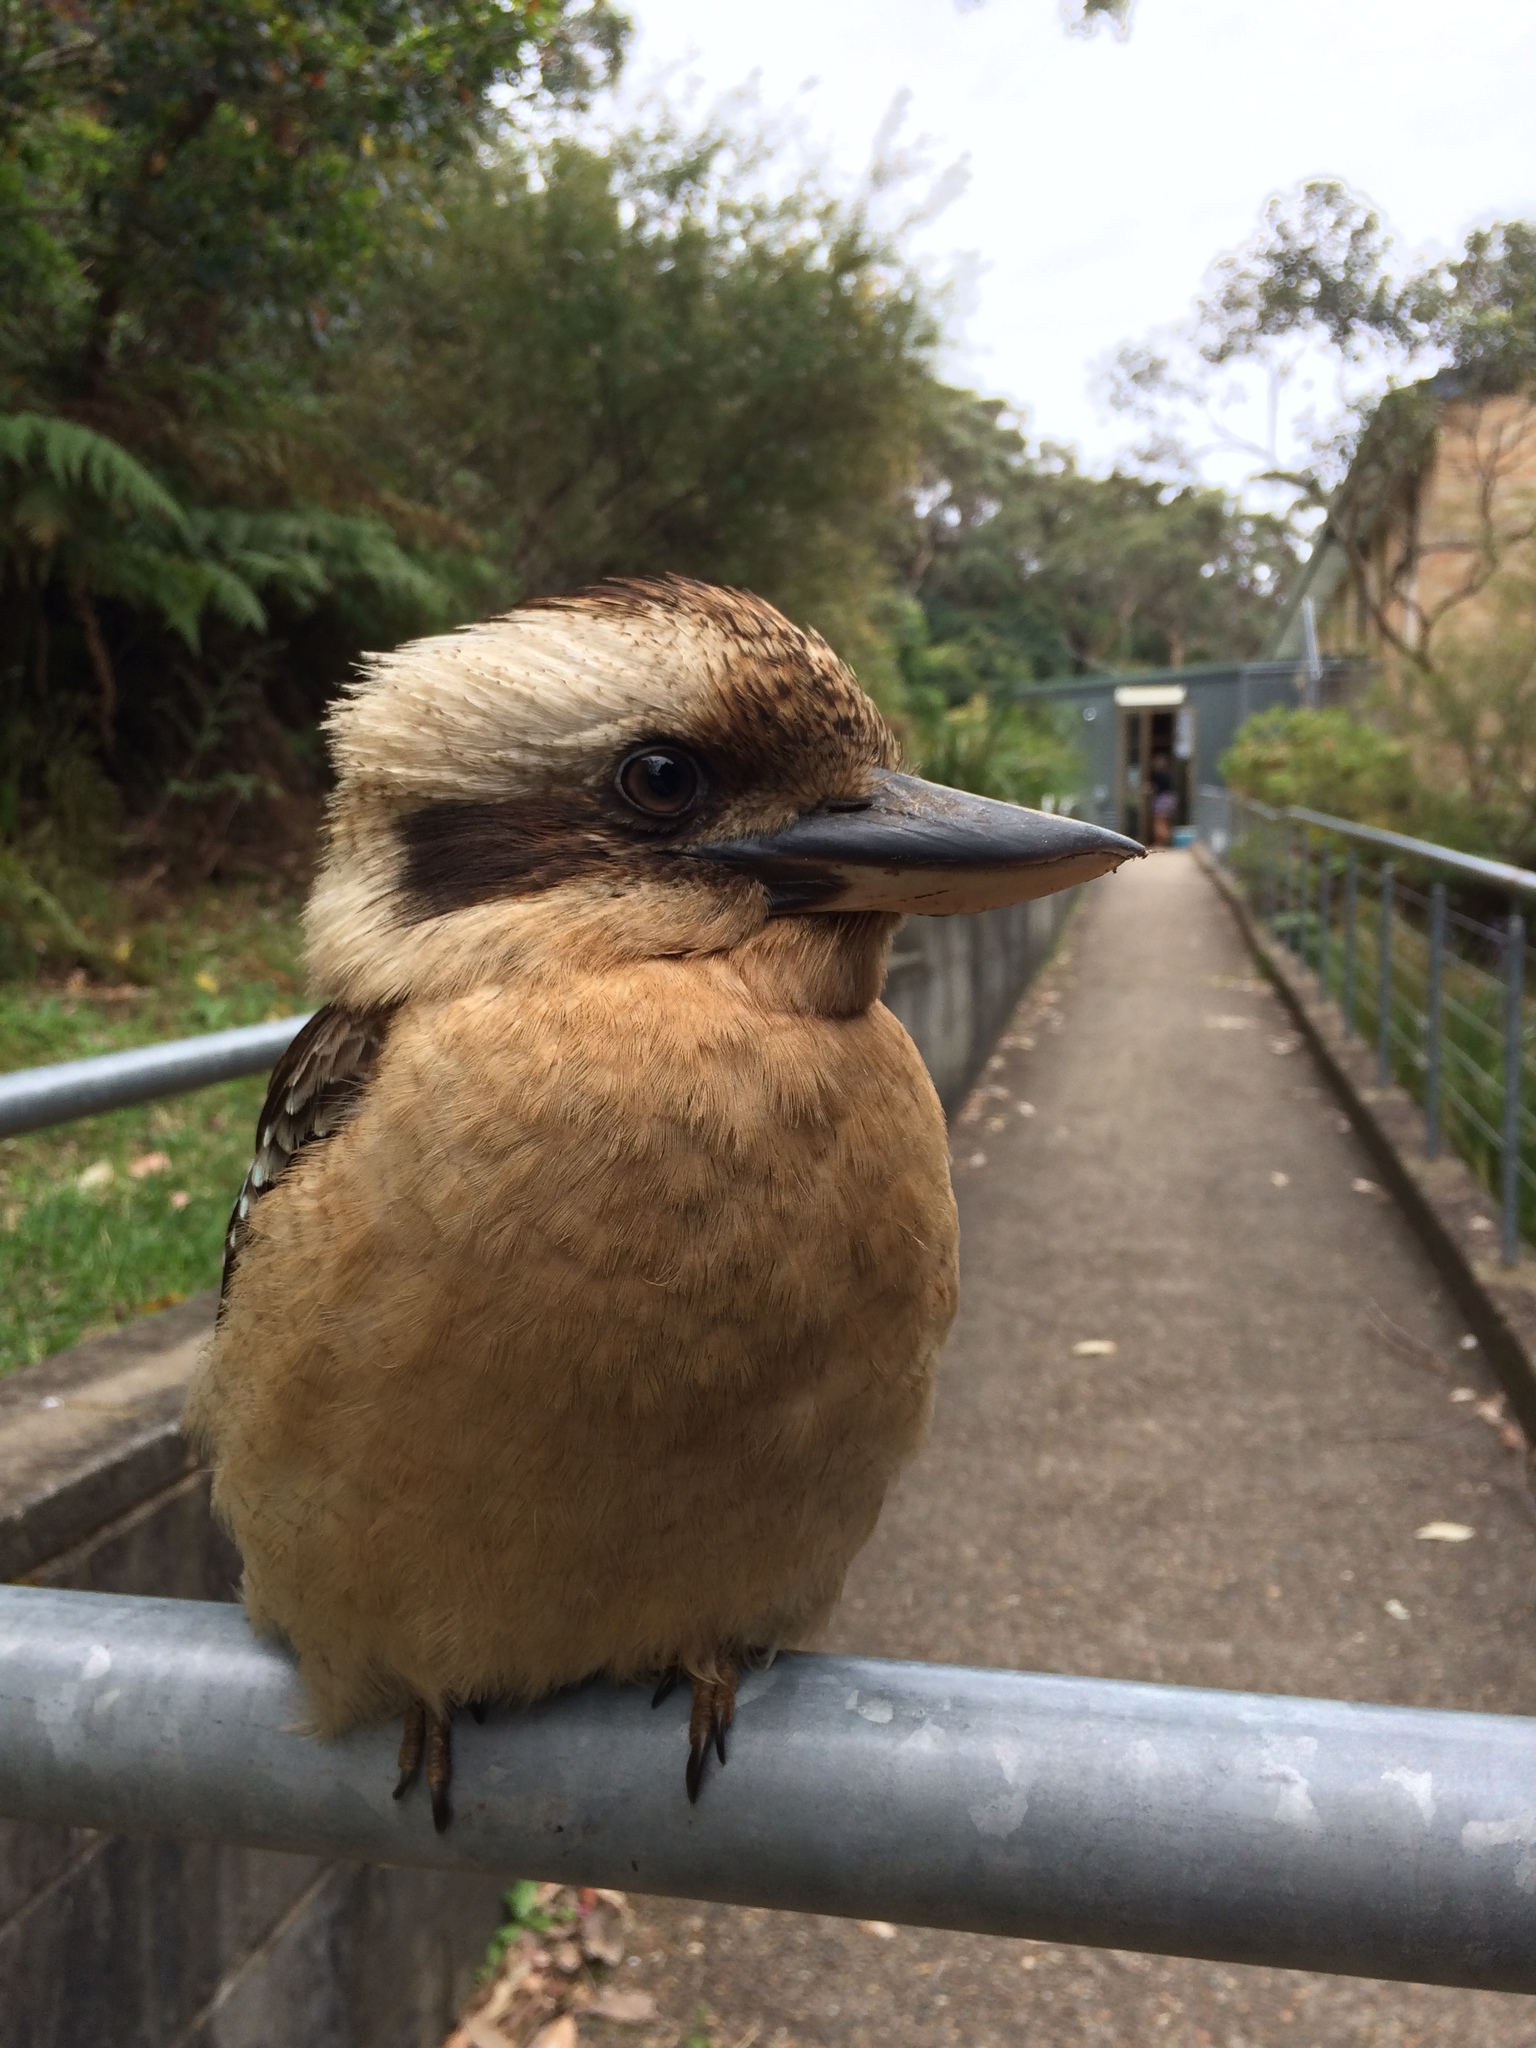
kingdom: Animalia
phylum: Chordata
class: Aves
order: Coraciiformes
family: Alcedinidae
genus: Dacelo
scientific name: Dacelo novaeguineae
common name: Laughing kookaburra
